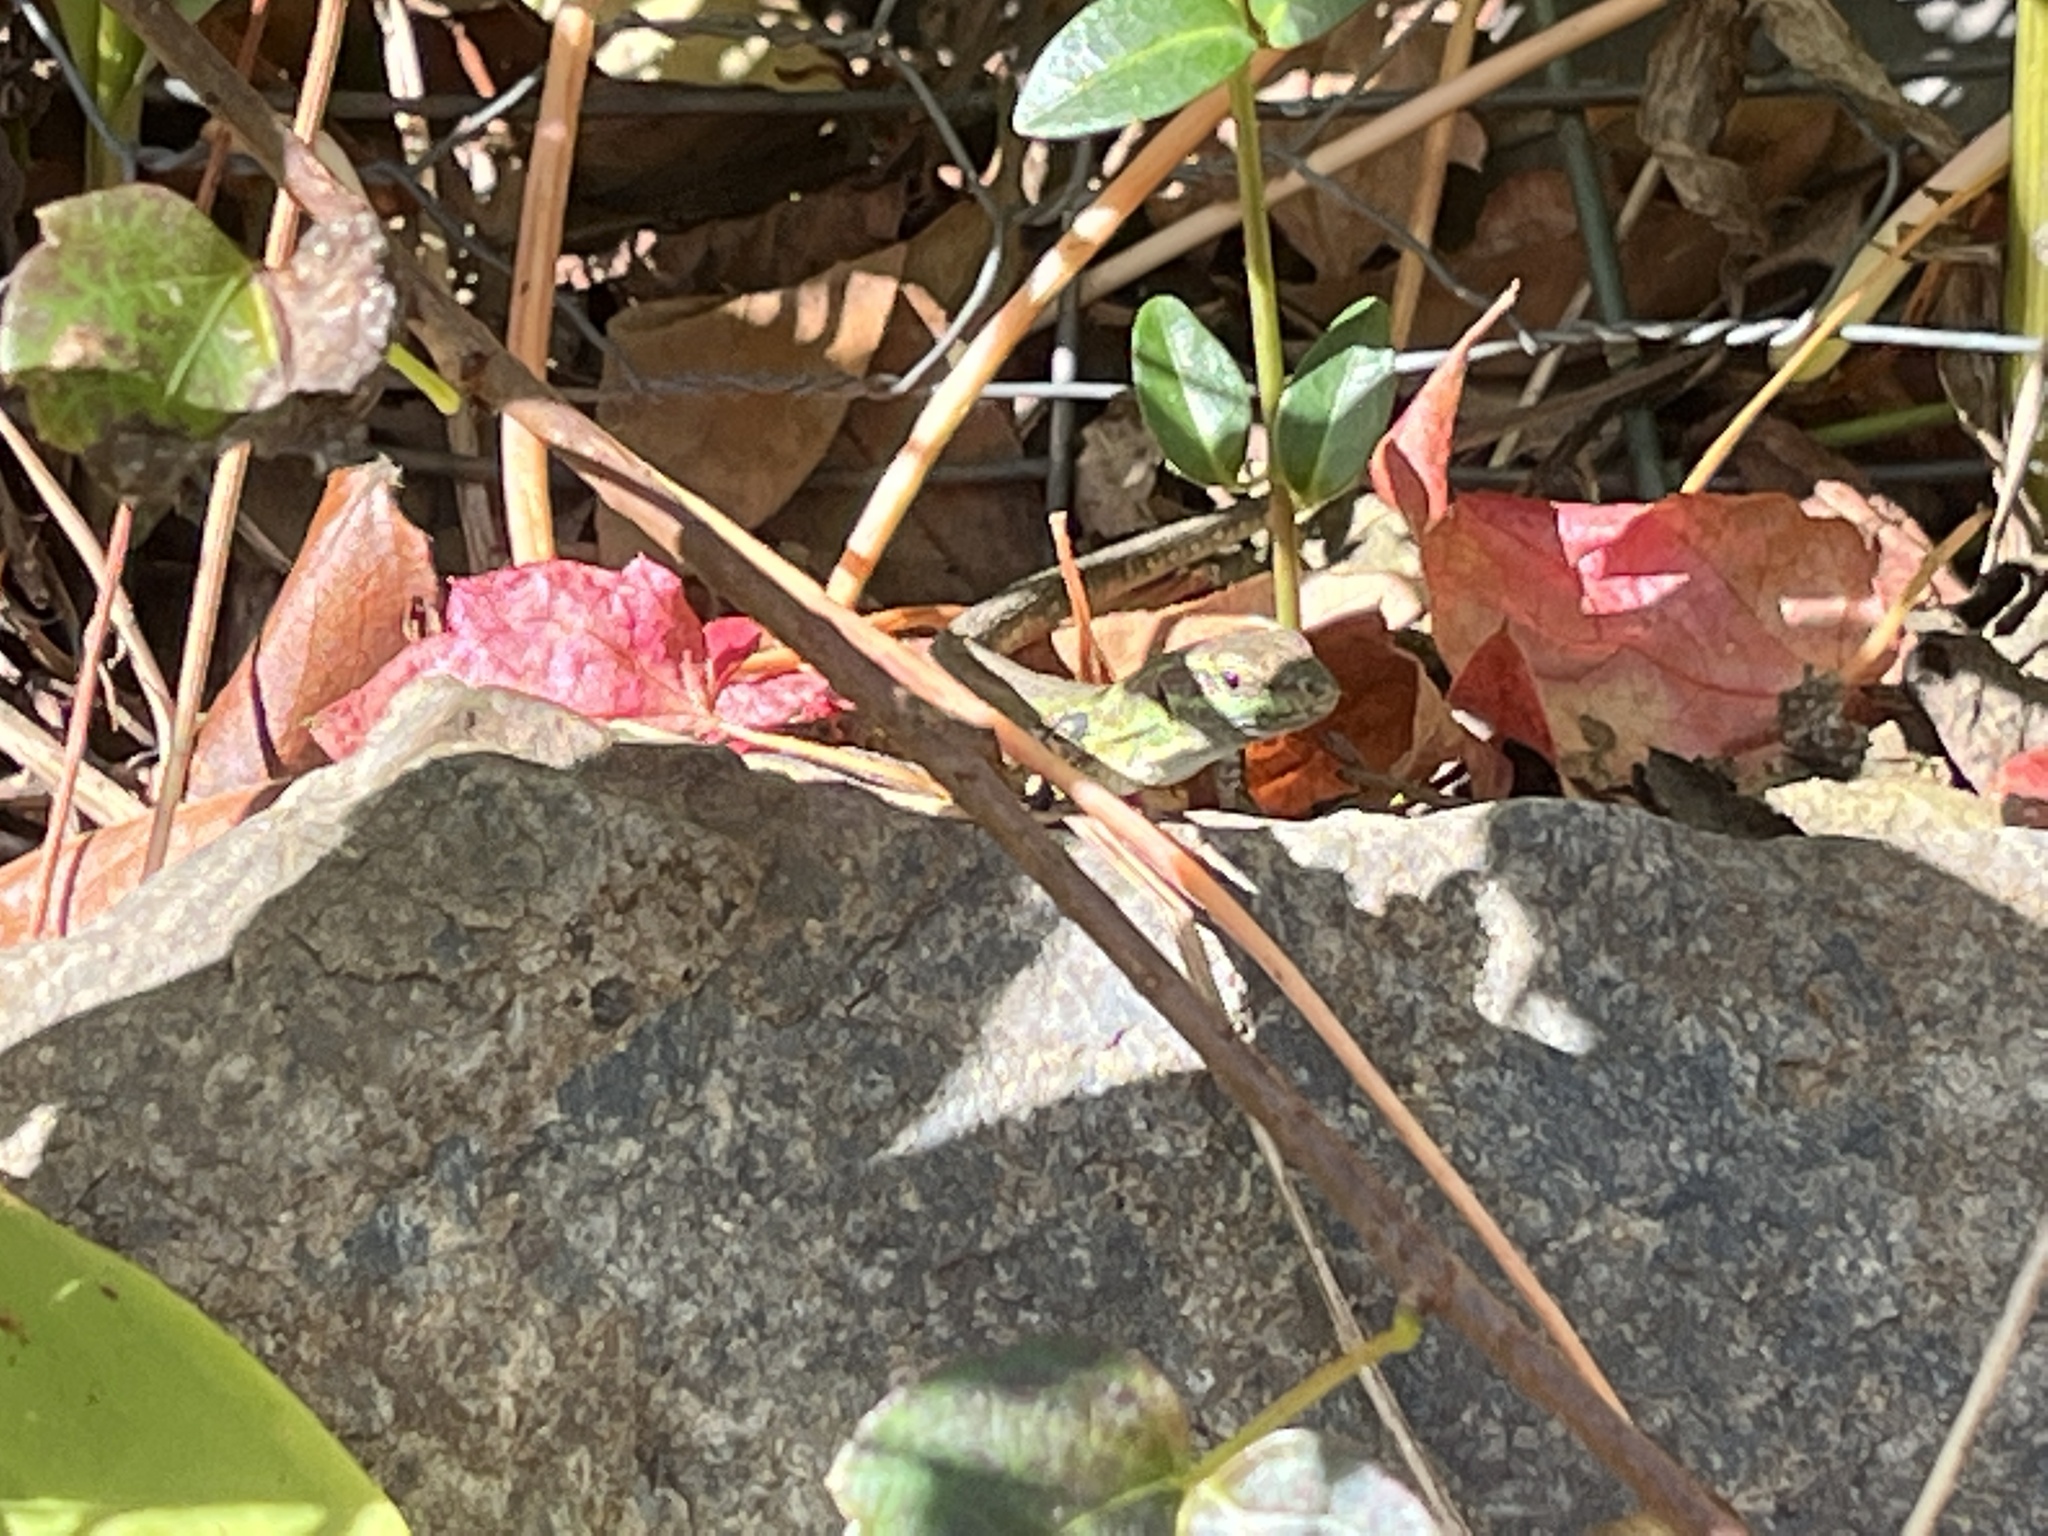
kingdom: Animalia
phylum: Chordata
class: Squamata
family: Lacertidae
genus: Podarcis
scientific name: Podarcis siculus
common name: Italian wall lizard
